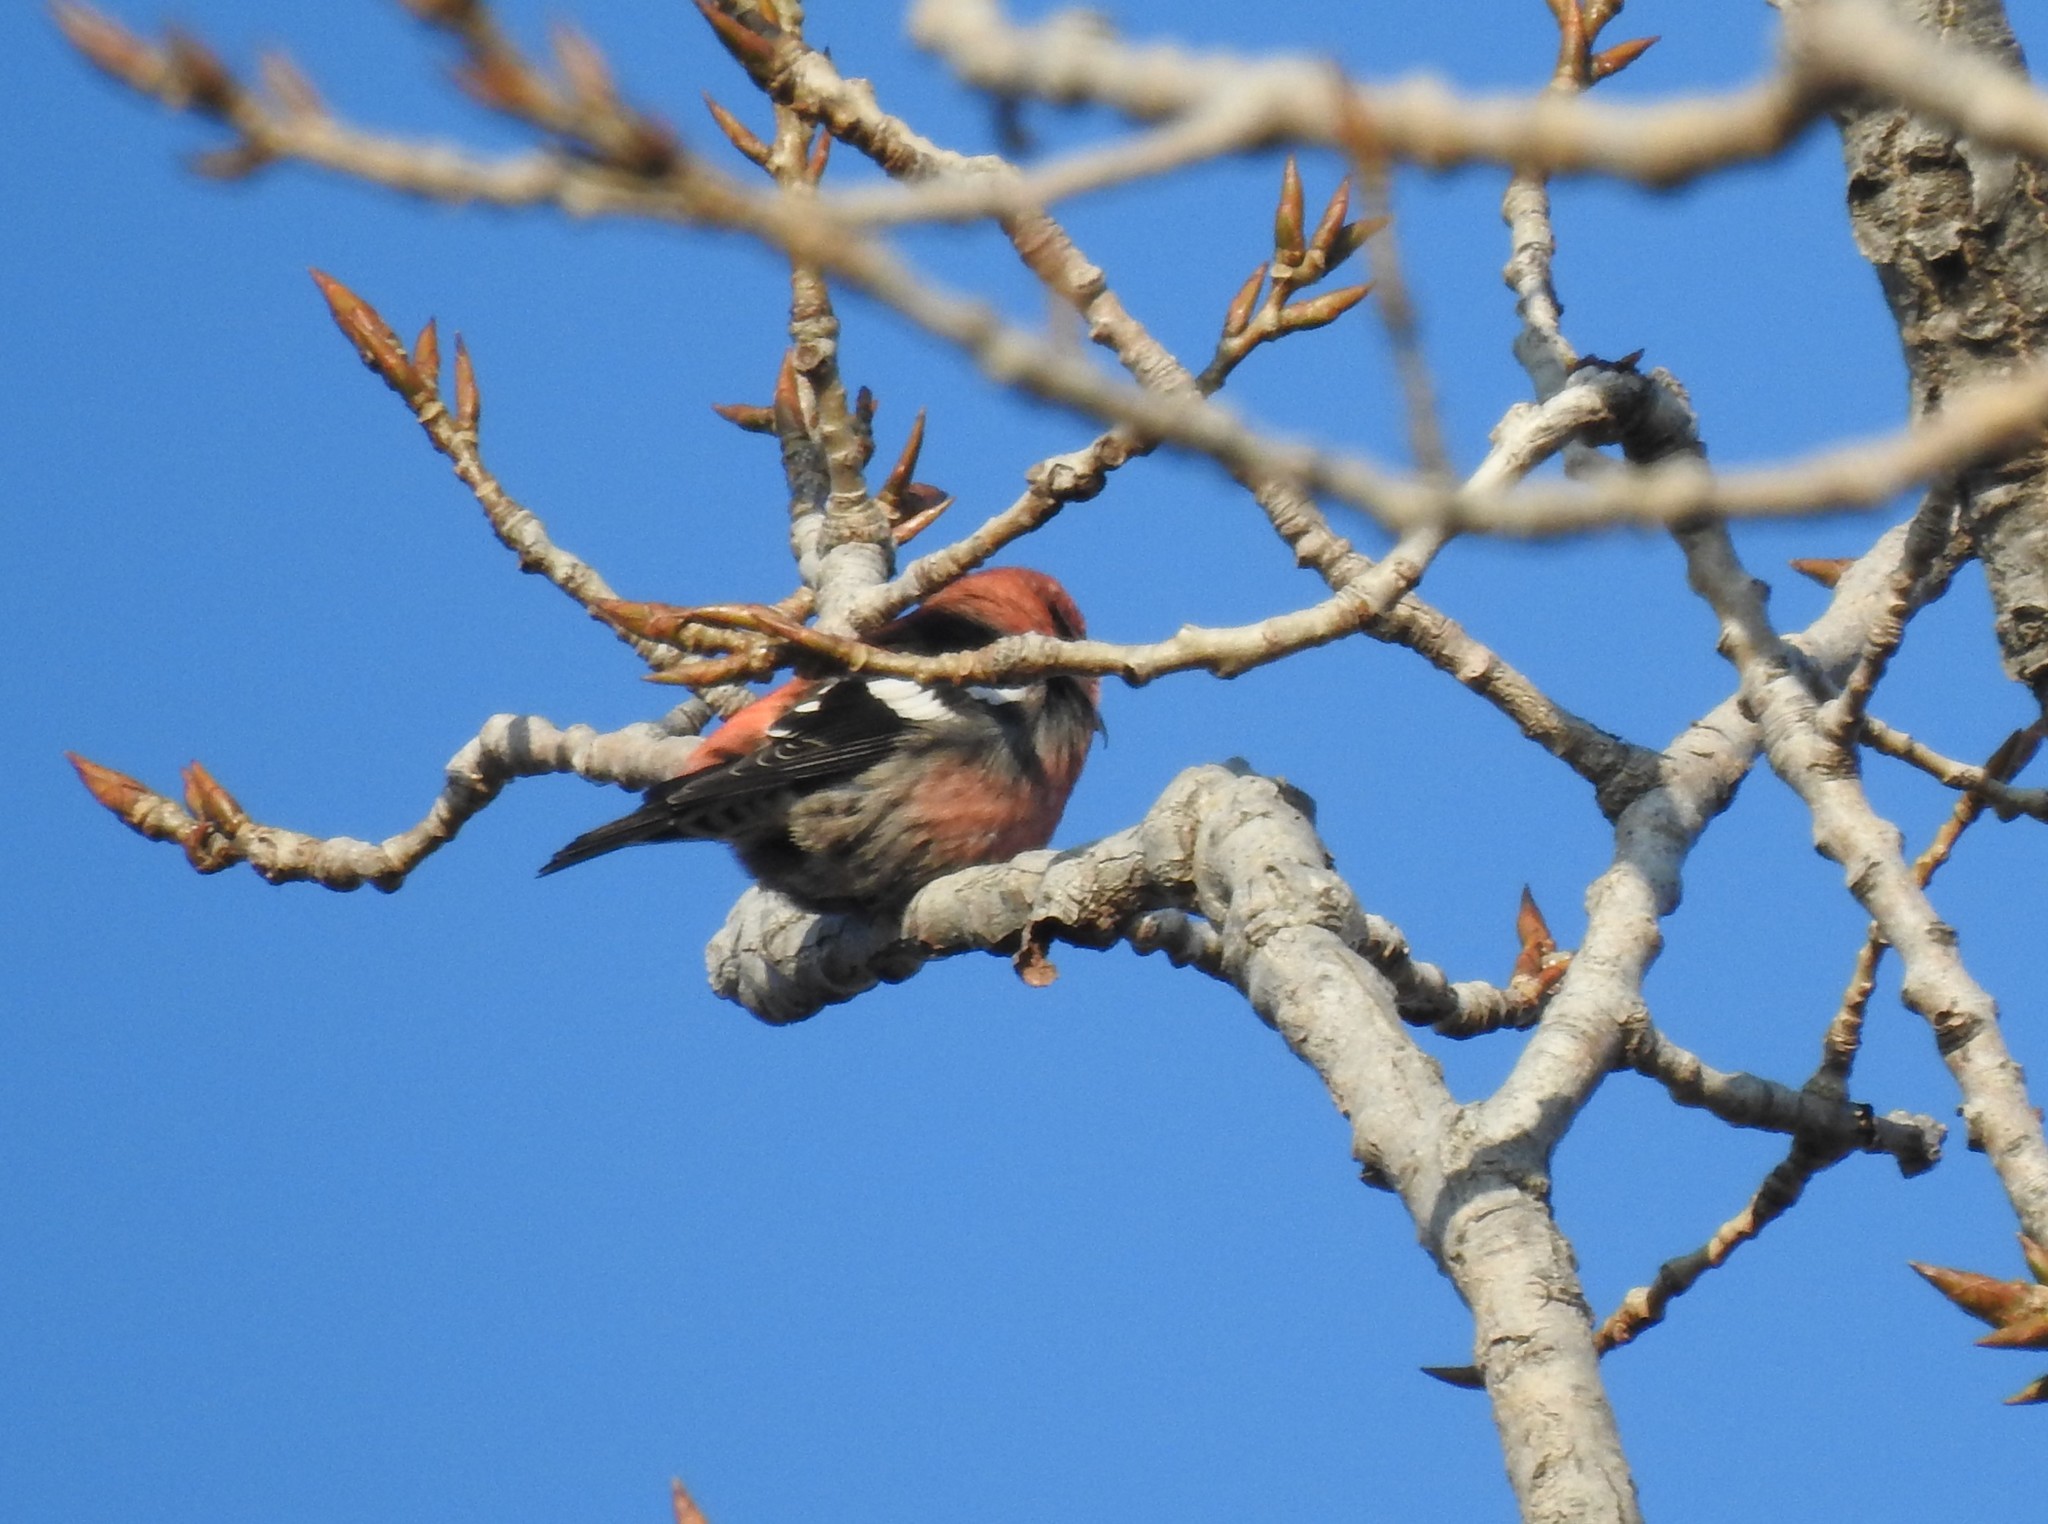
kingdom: Animalia
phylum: Chordata
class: Aves
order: Passeriformes
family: Fringillidae
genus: Loxia
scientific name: Loxia leucoptera
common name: Two-barred crossbill
